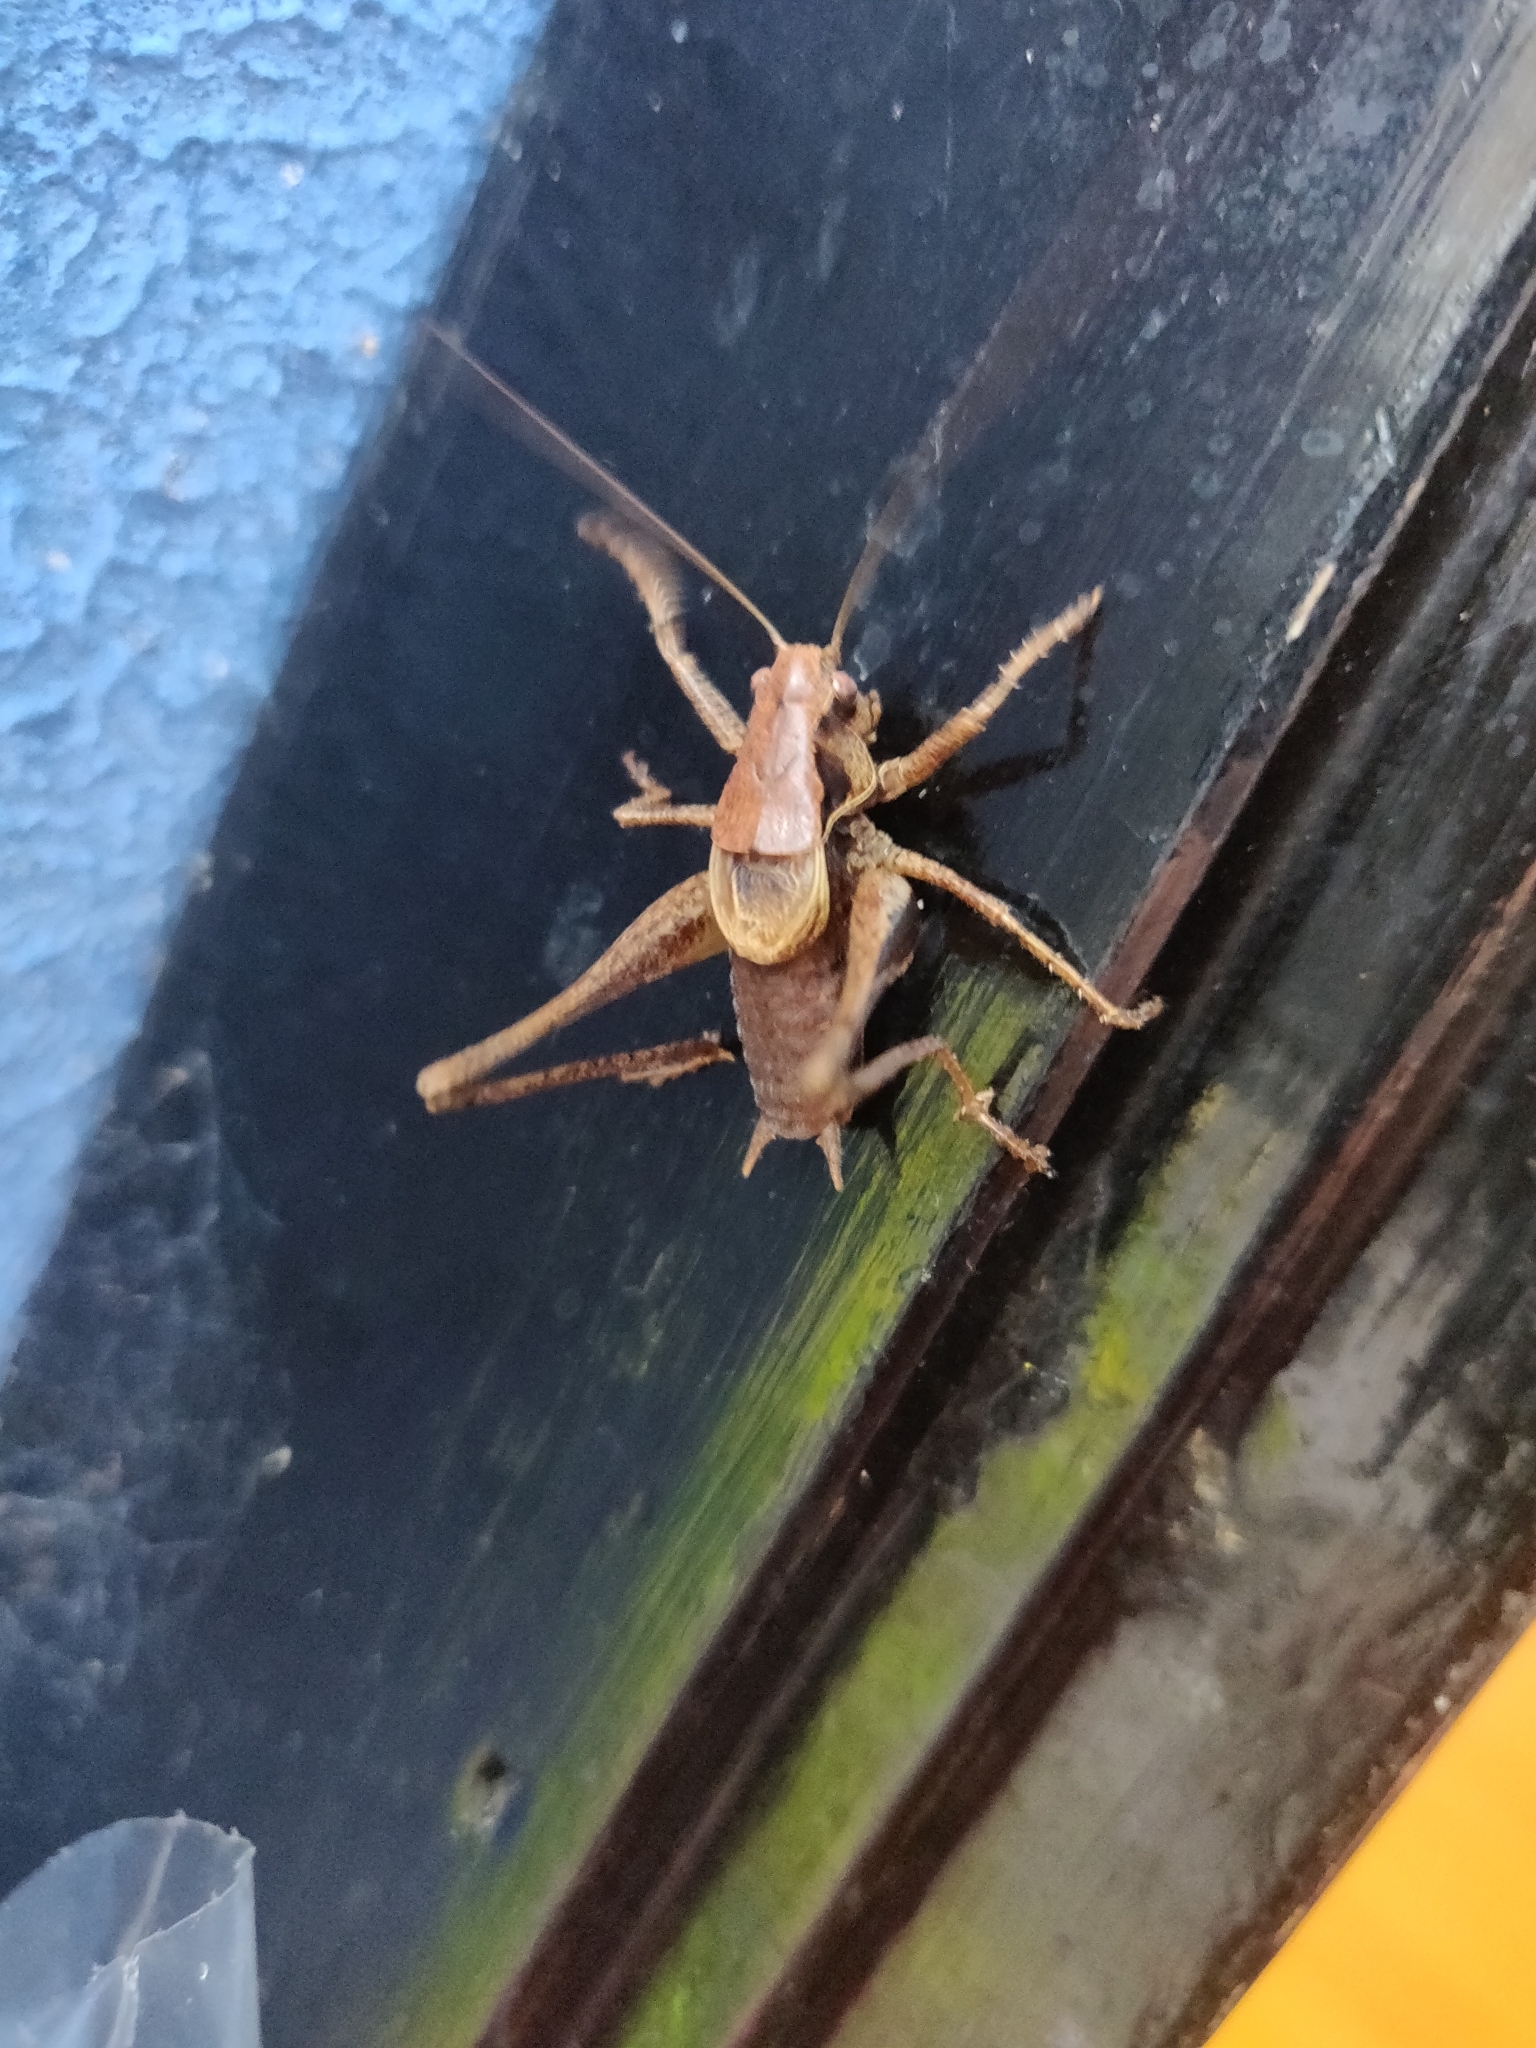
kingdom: Animalia
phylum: Arthropoda
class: Insecta
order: Orthoptera
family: Tettigoniidae
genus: Pholidoptera
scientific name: Pholidoptera griseoaptera
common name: Dark bush-cricket
